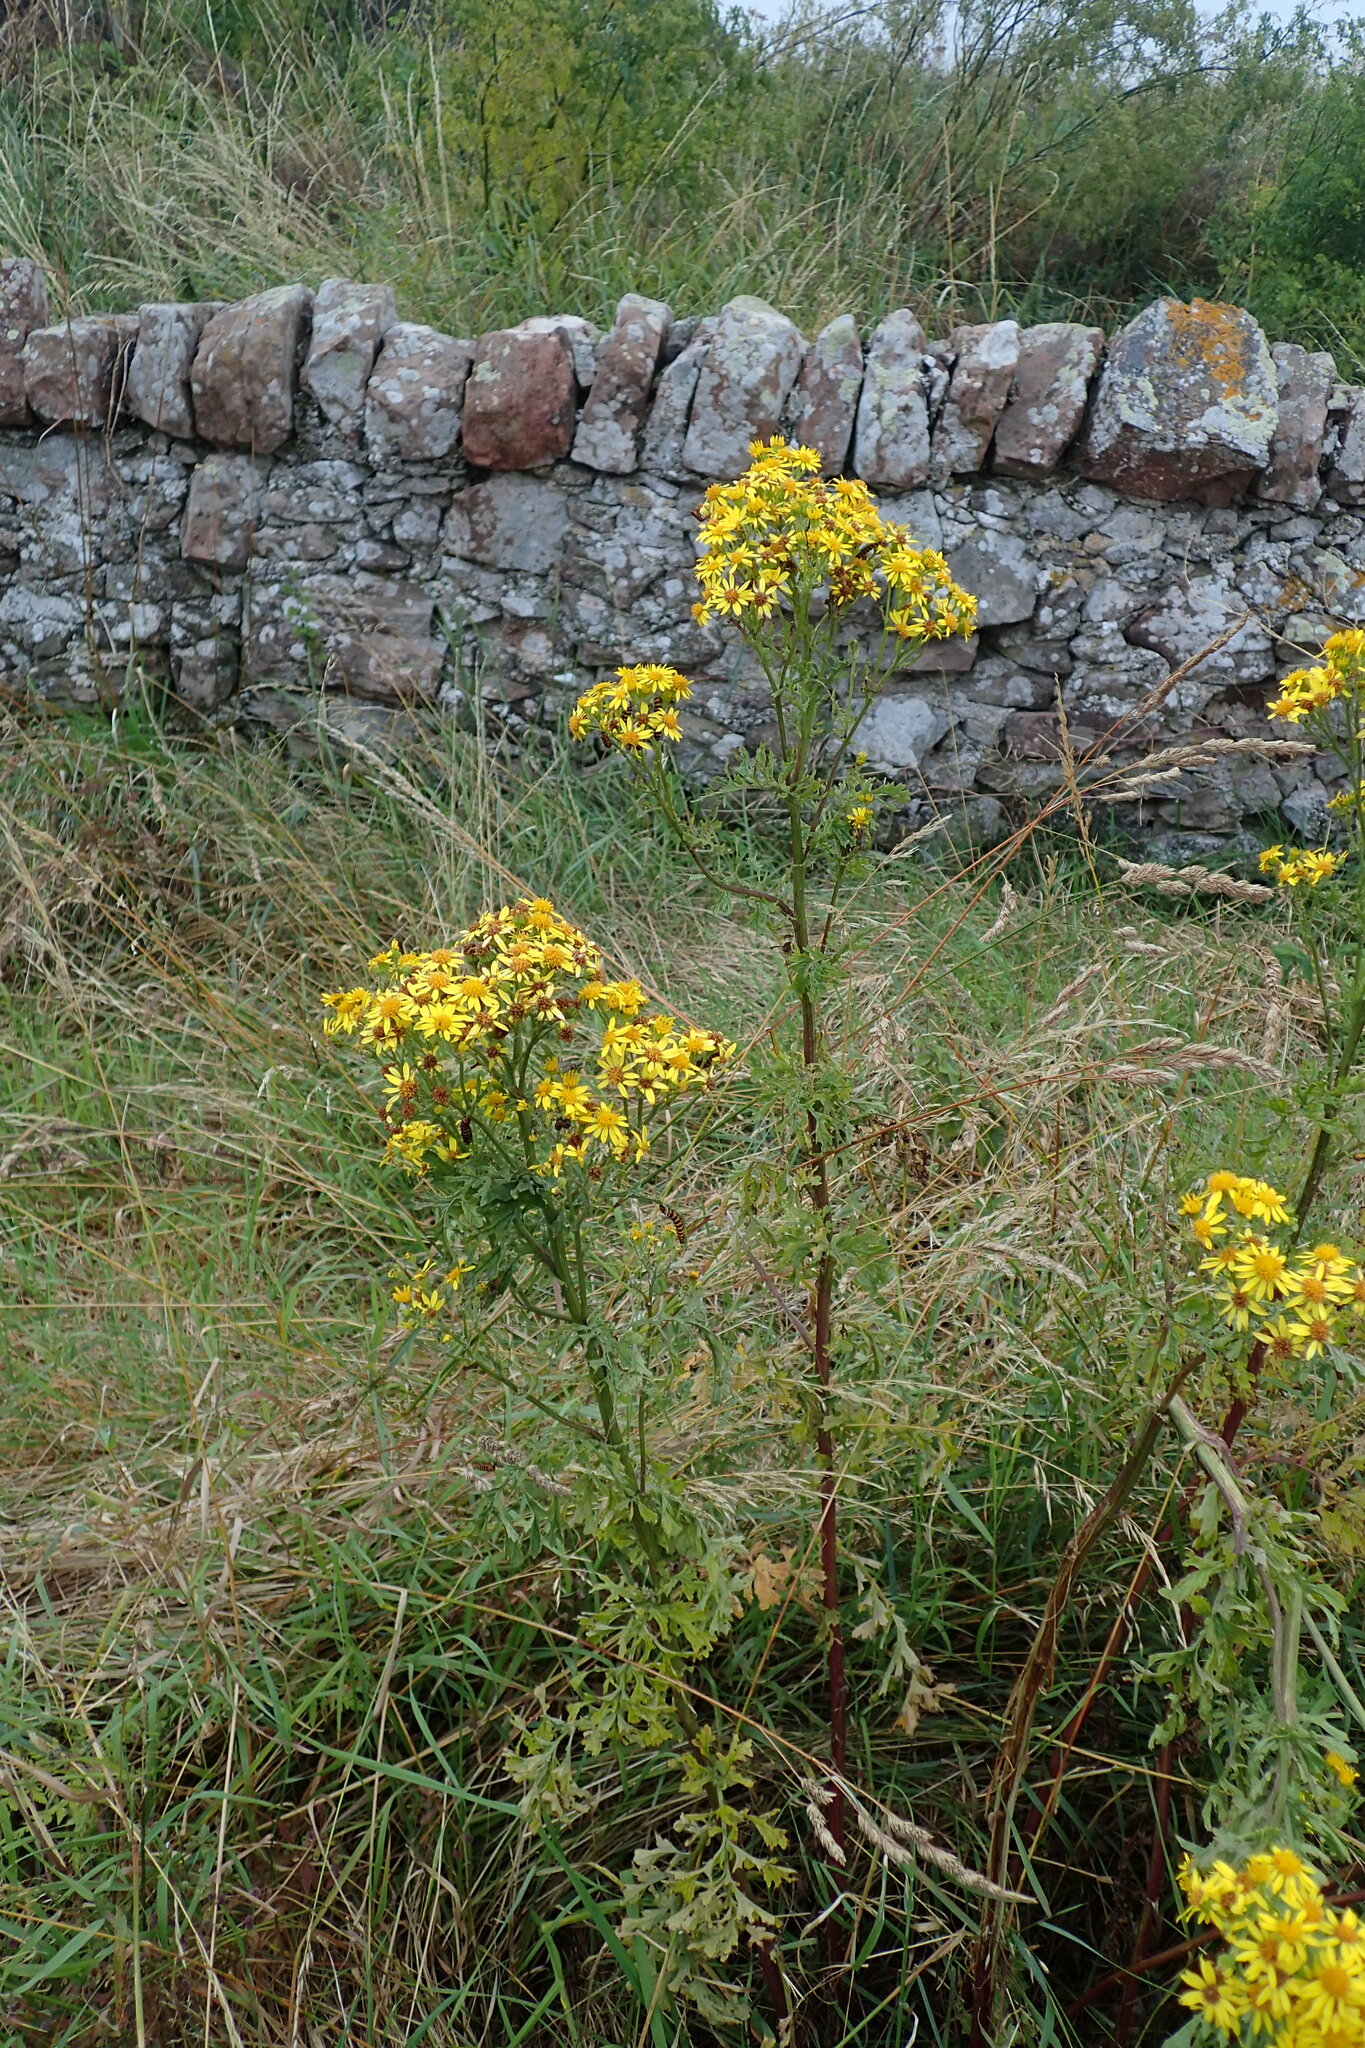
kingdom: Plantae
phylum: Tracheophyta
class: Magnoliopsida
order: Asterales
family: Asteraceae
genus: Jacobaea
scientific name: Jacobaea vulgaris
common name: Stinking willie
